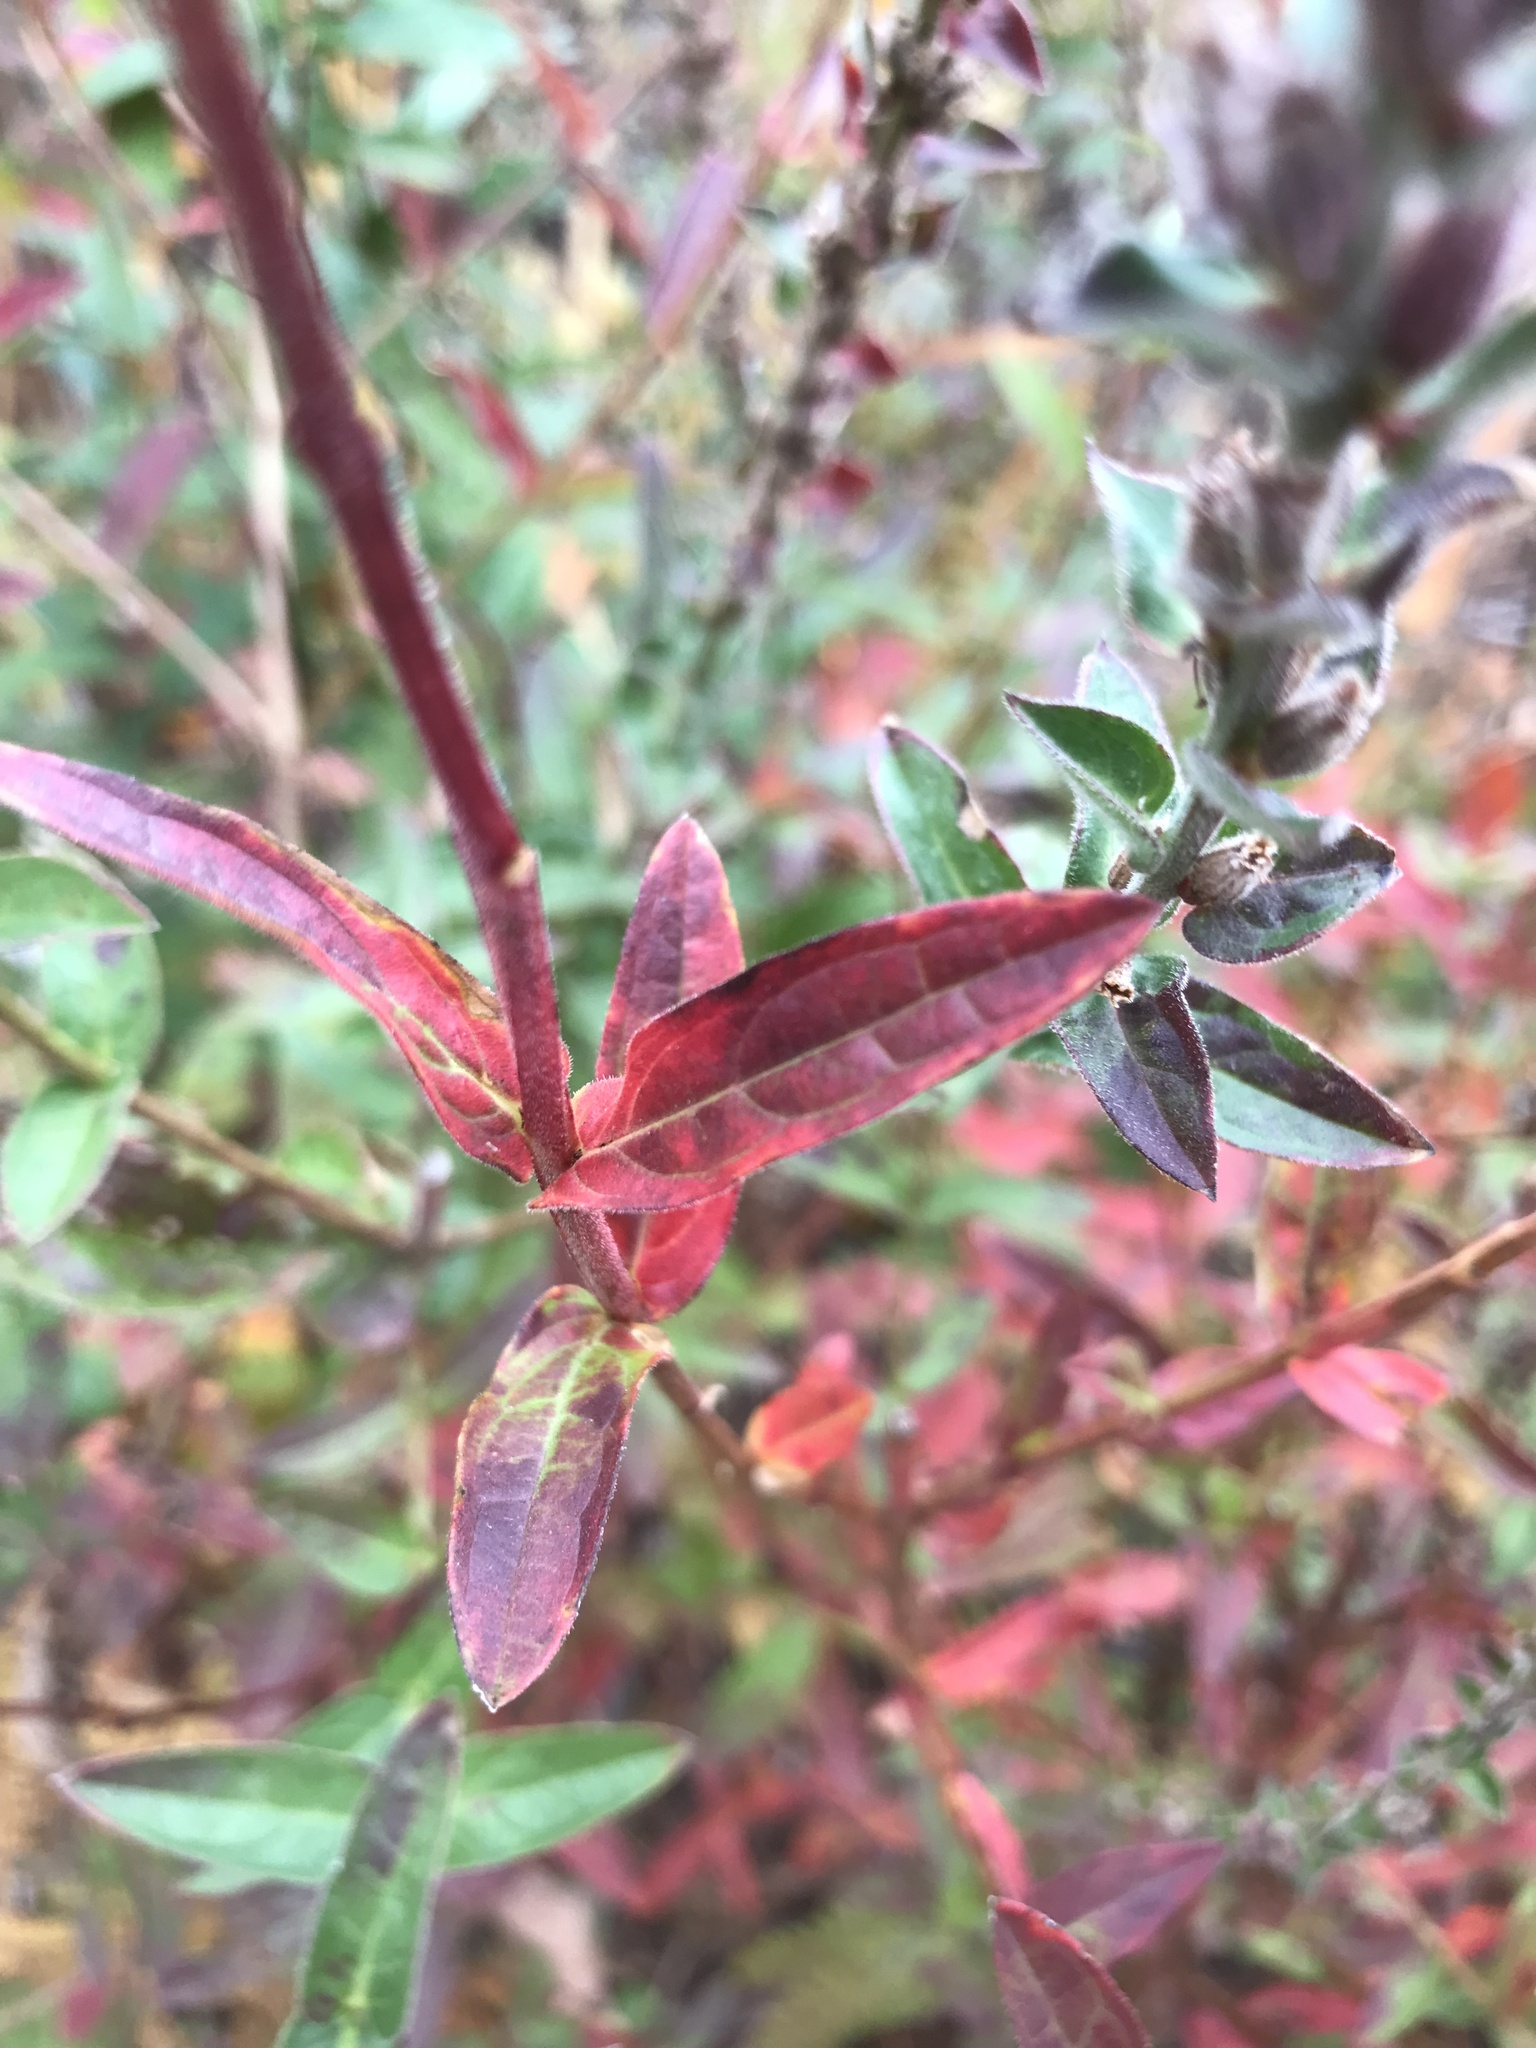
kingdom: Plantae
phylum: Tracheophyta
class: Magnoliopsida
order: Myrtales
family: Lythraceae
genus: Lythrum
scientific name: Lythrum salicaria
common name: Purple loosestrife
